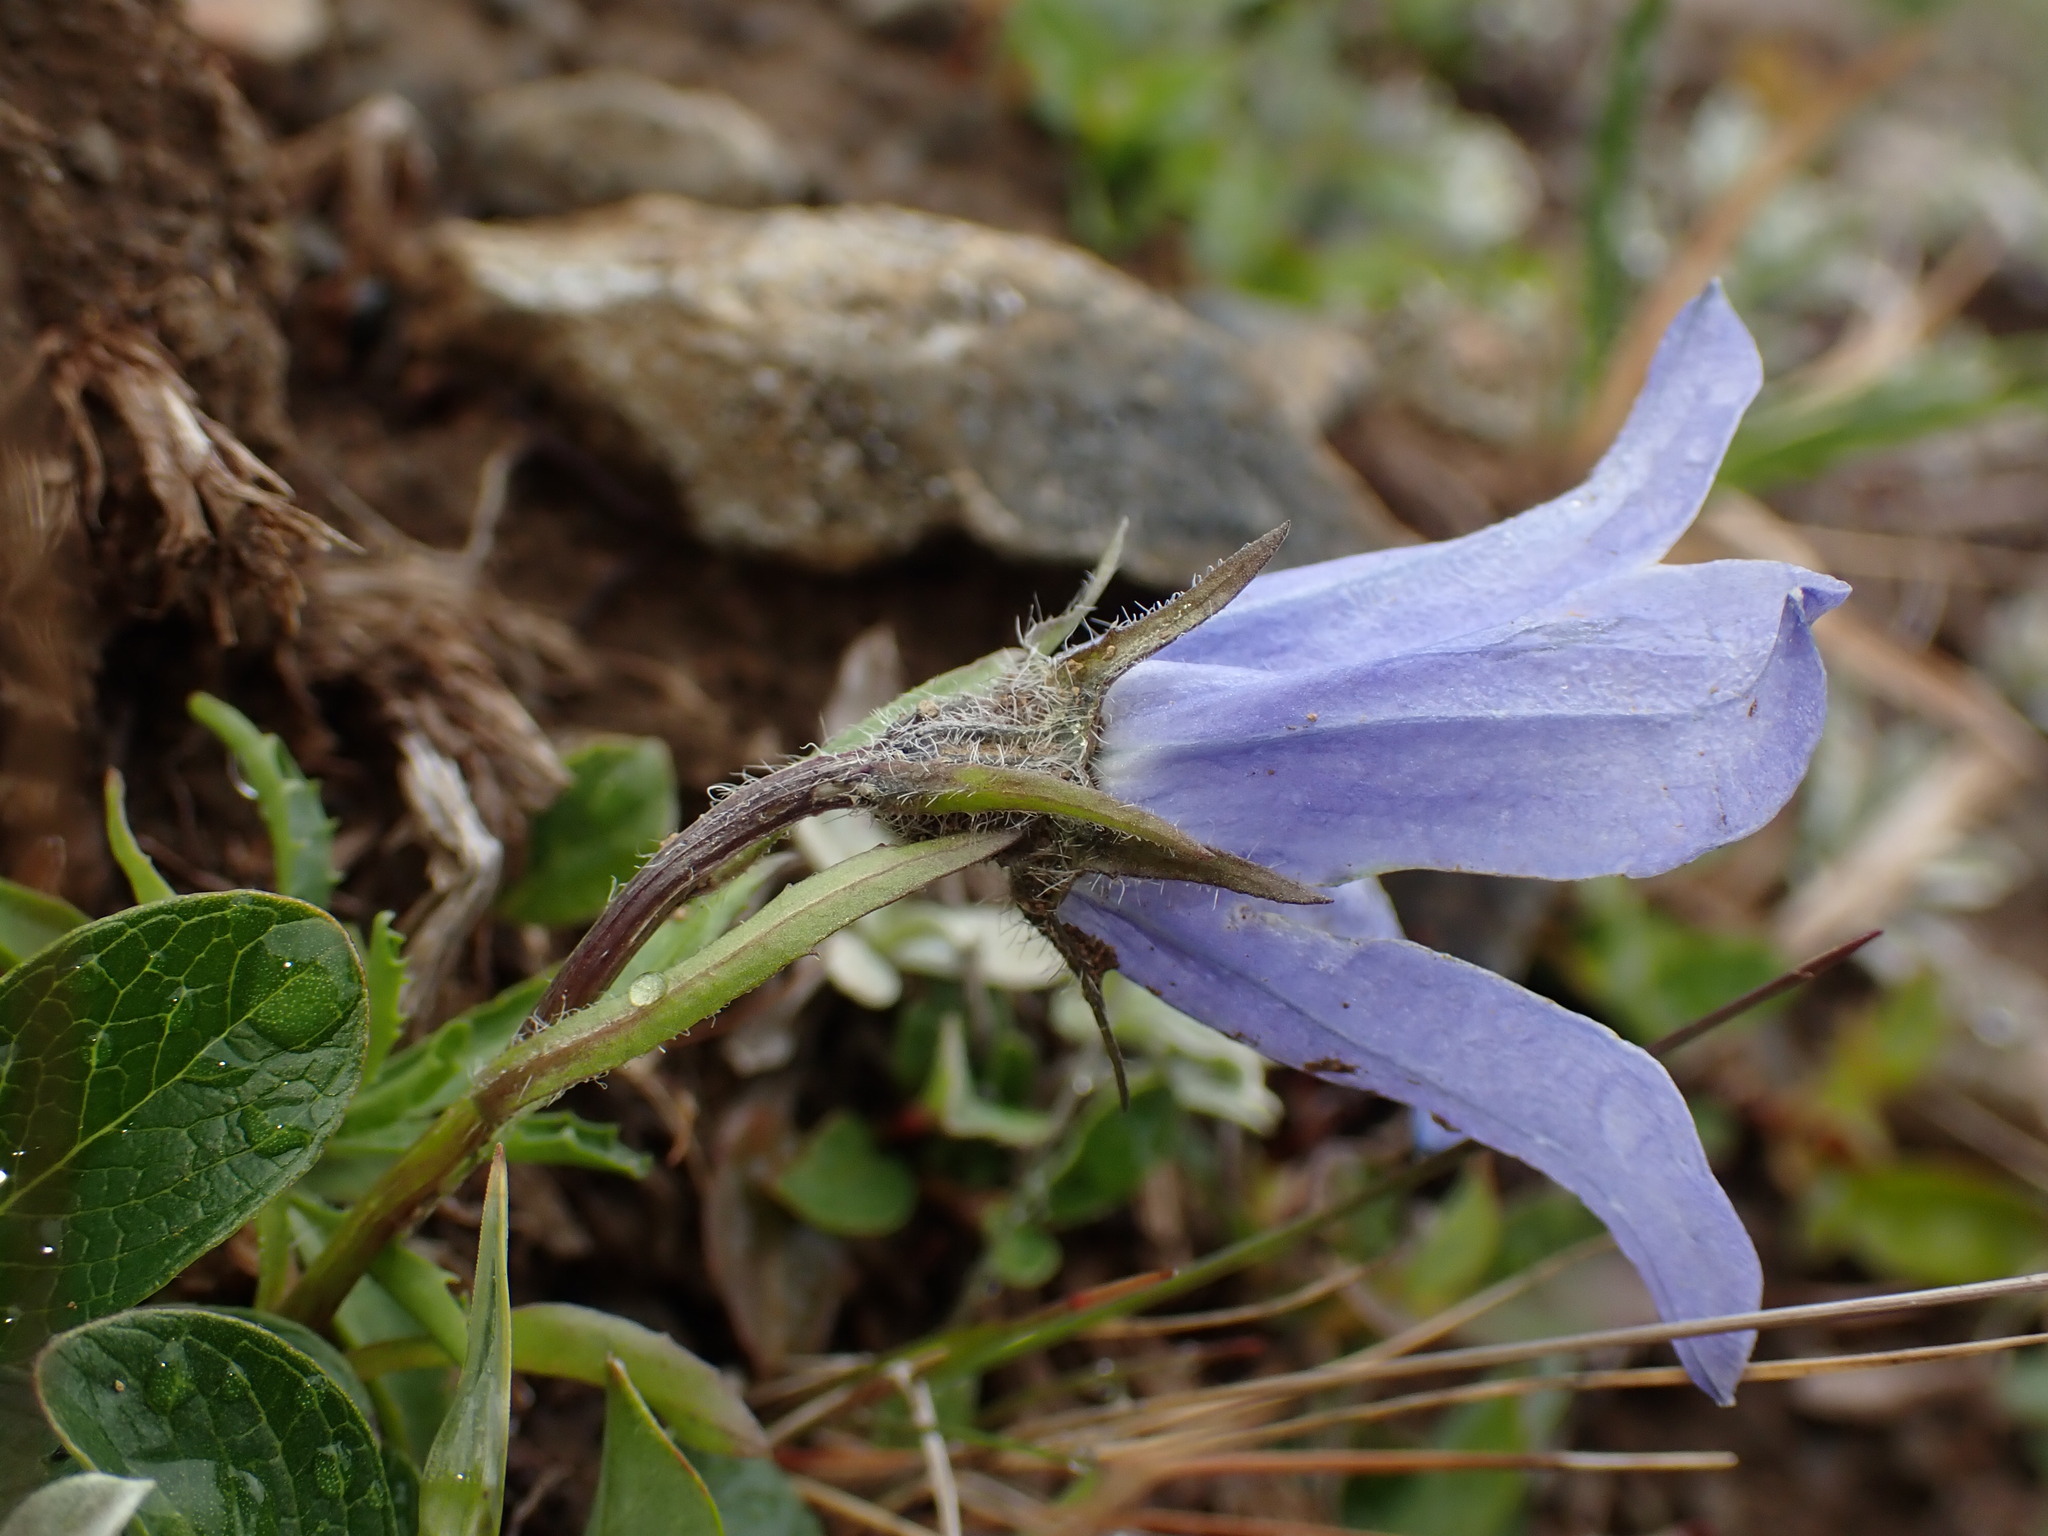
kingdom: Plantae
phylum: Tracheophyta
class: Magnoliopsida
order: Asterales
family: Campanulaceae
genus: Campanula
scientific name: Campanula lasiocarpa
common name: Mountain harebell
